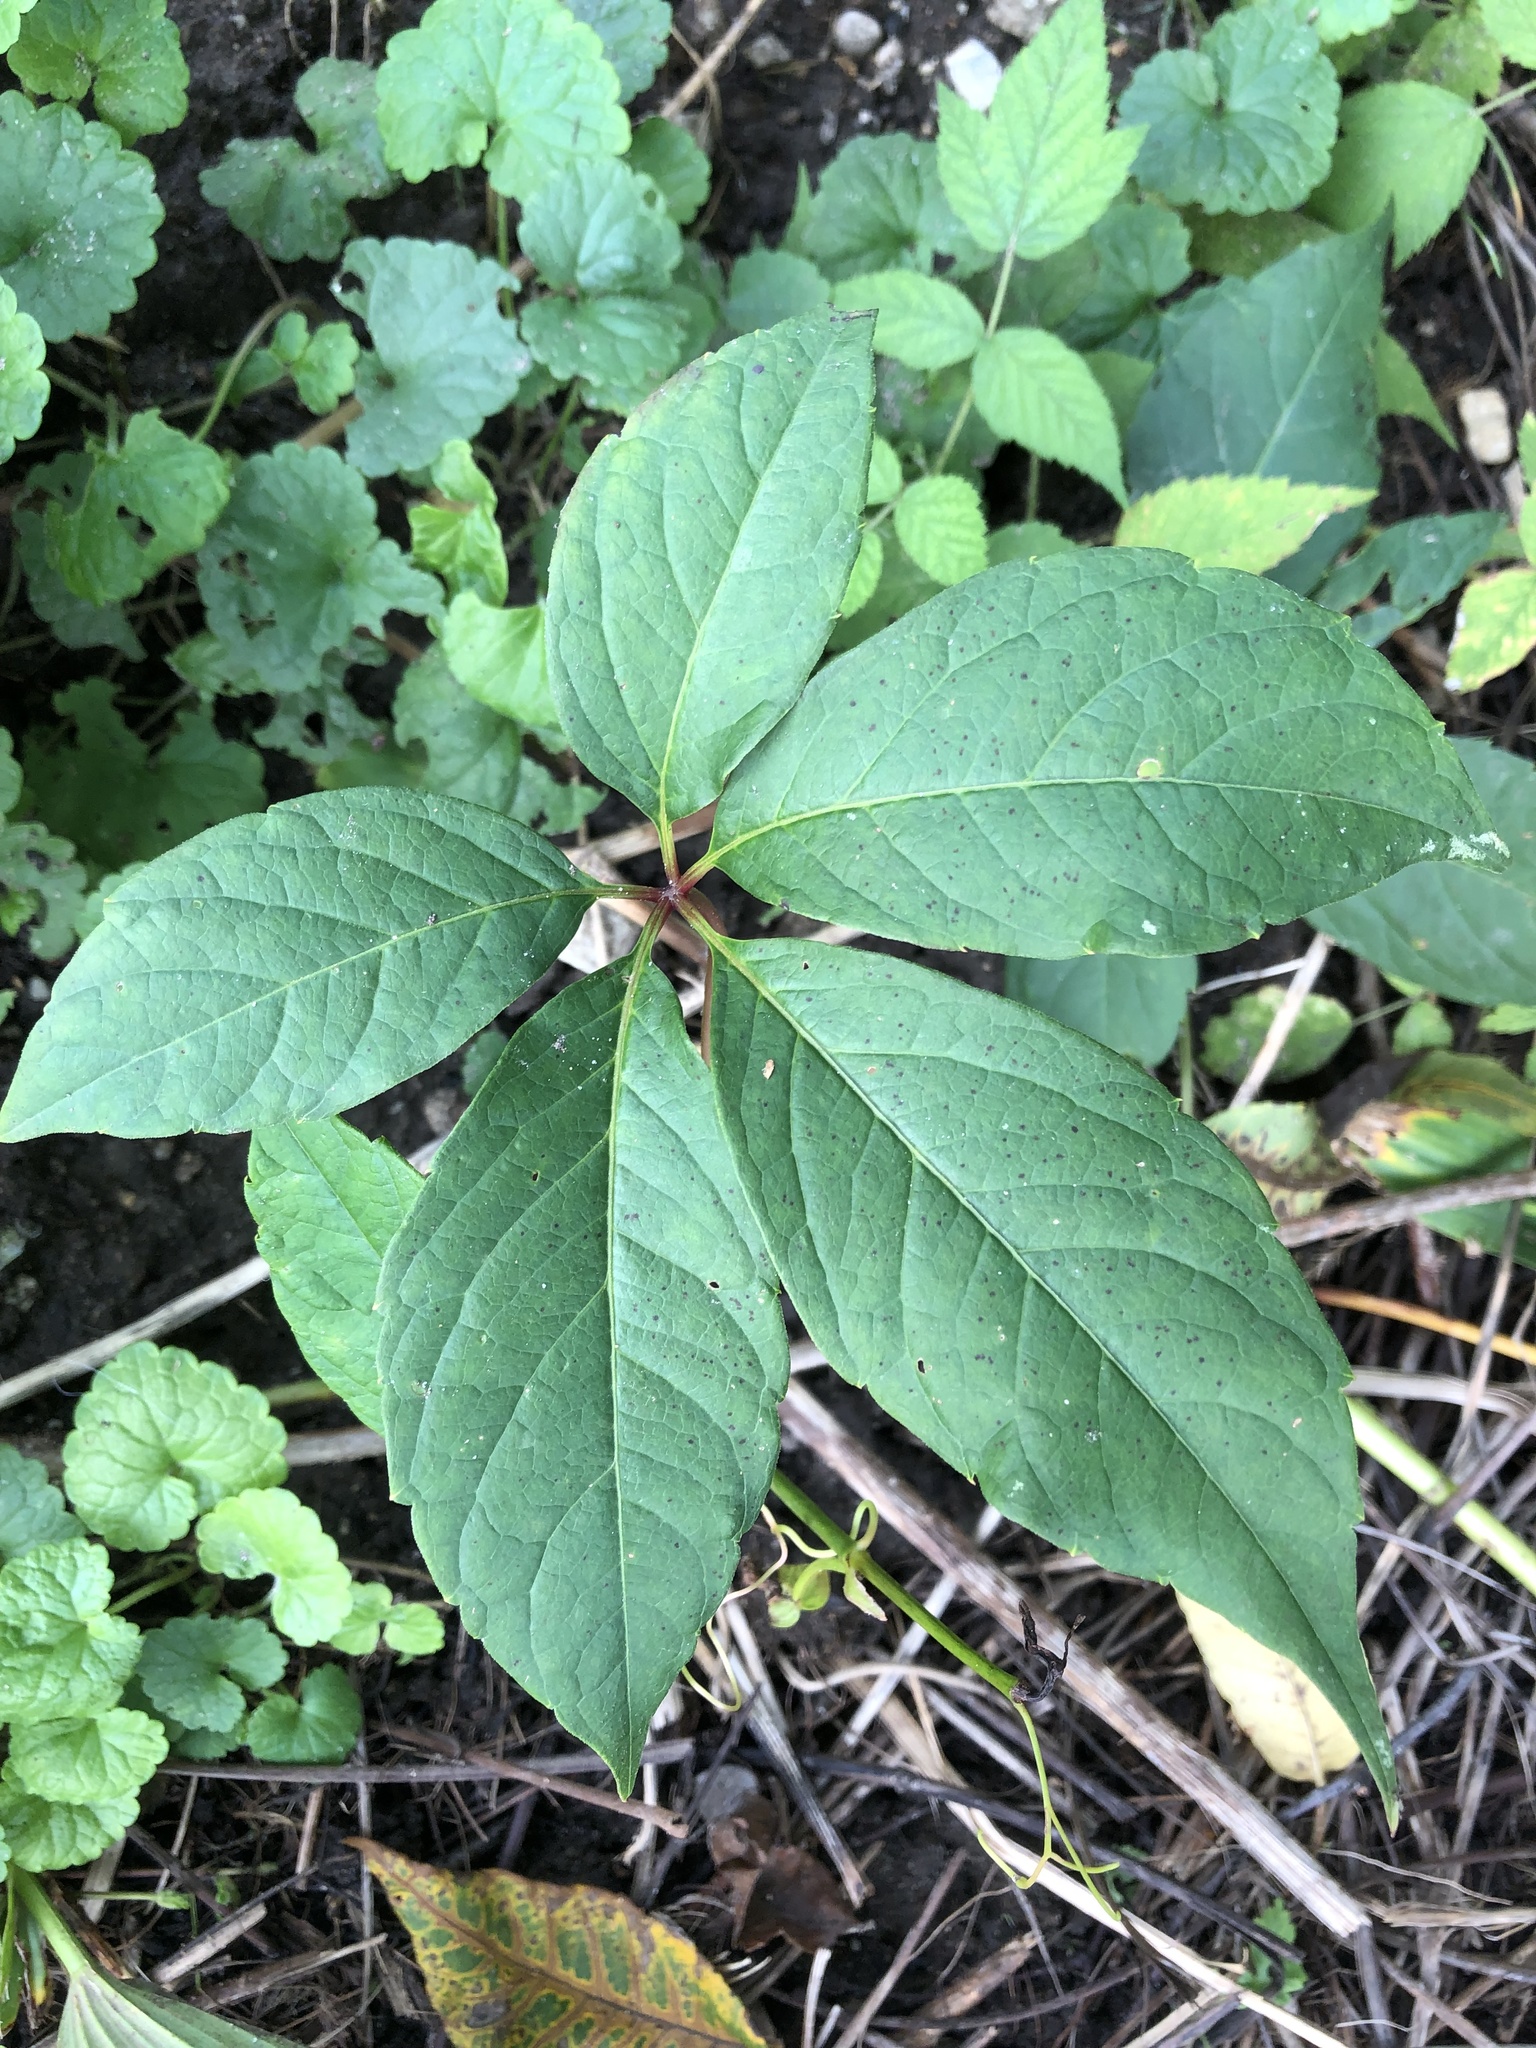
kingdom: Plantae
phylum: Tracheophyta
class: Magnoliopsida
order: Vitales
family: Vitaceae
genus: Parthenocissus
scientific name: Parthenocissus quinquefolia
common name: Virginia-creeper
